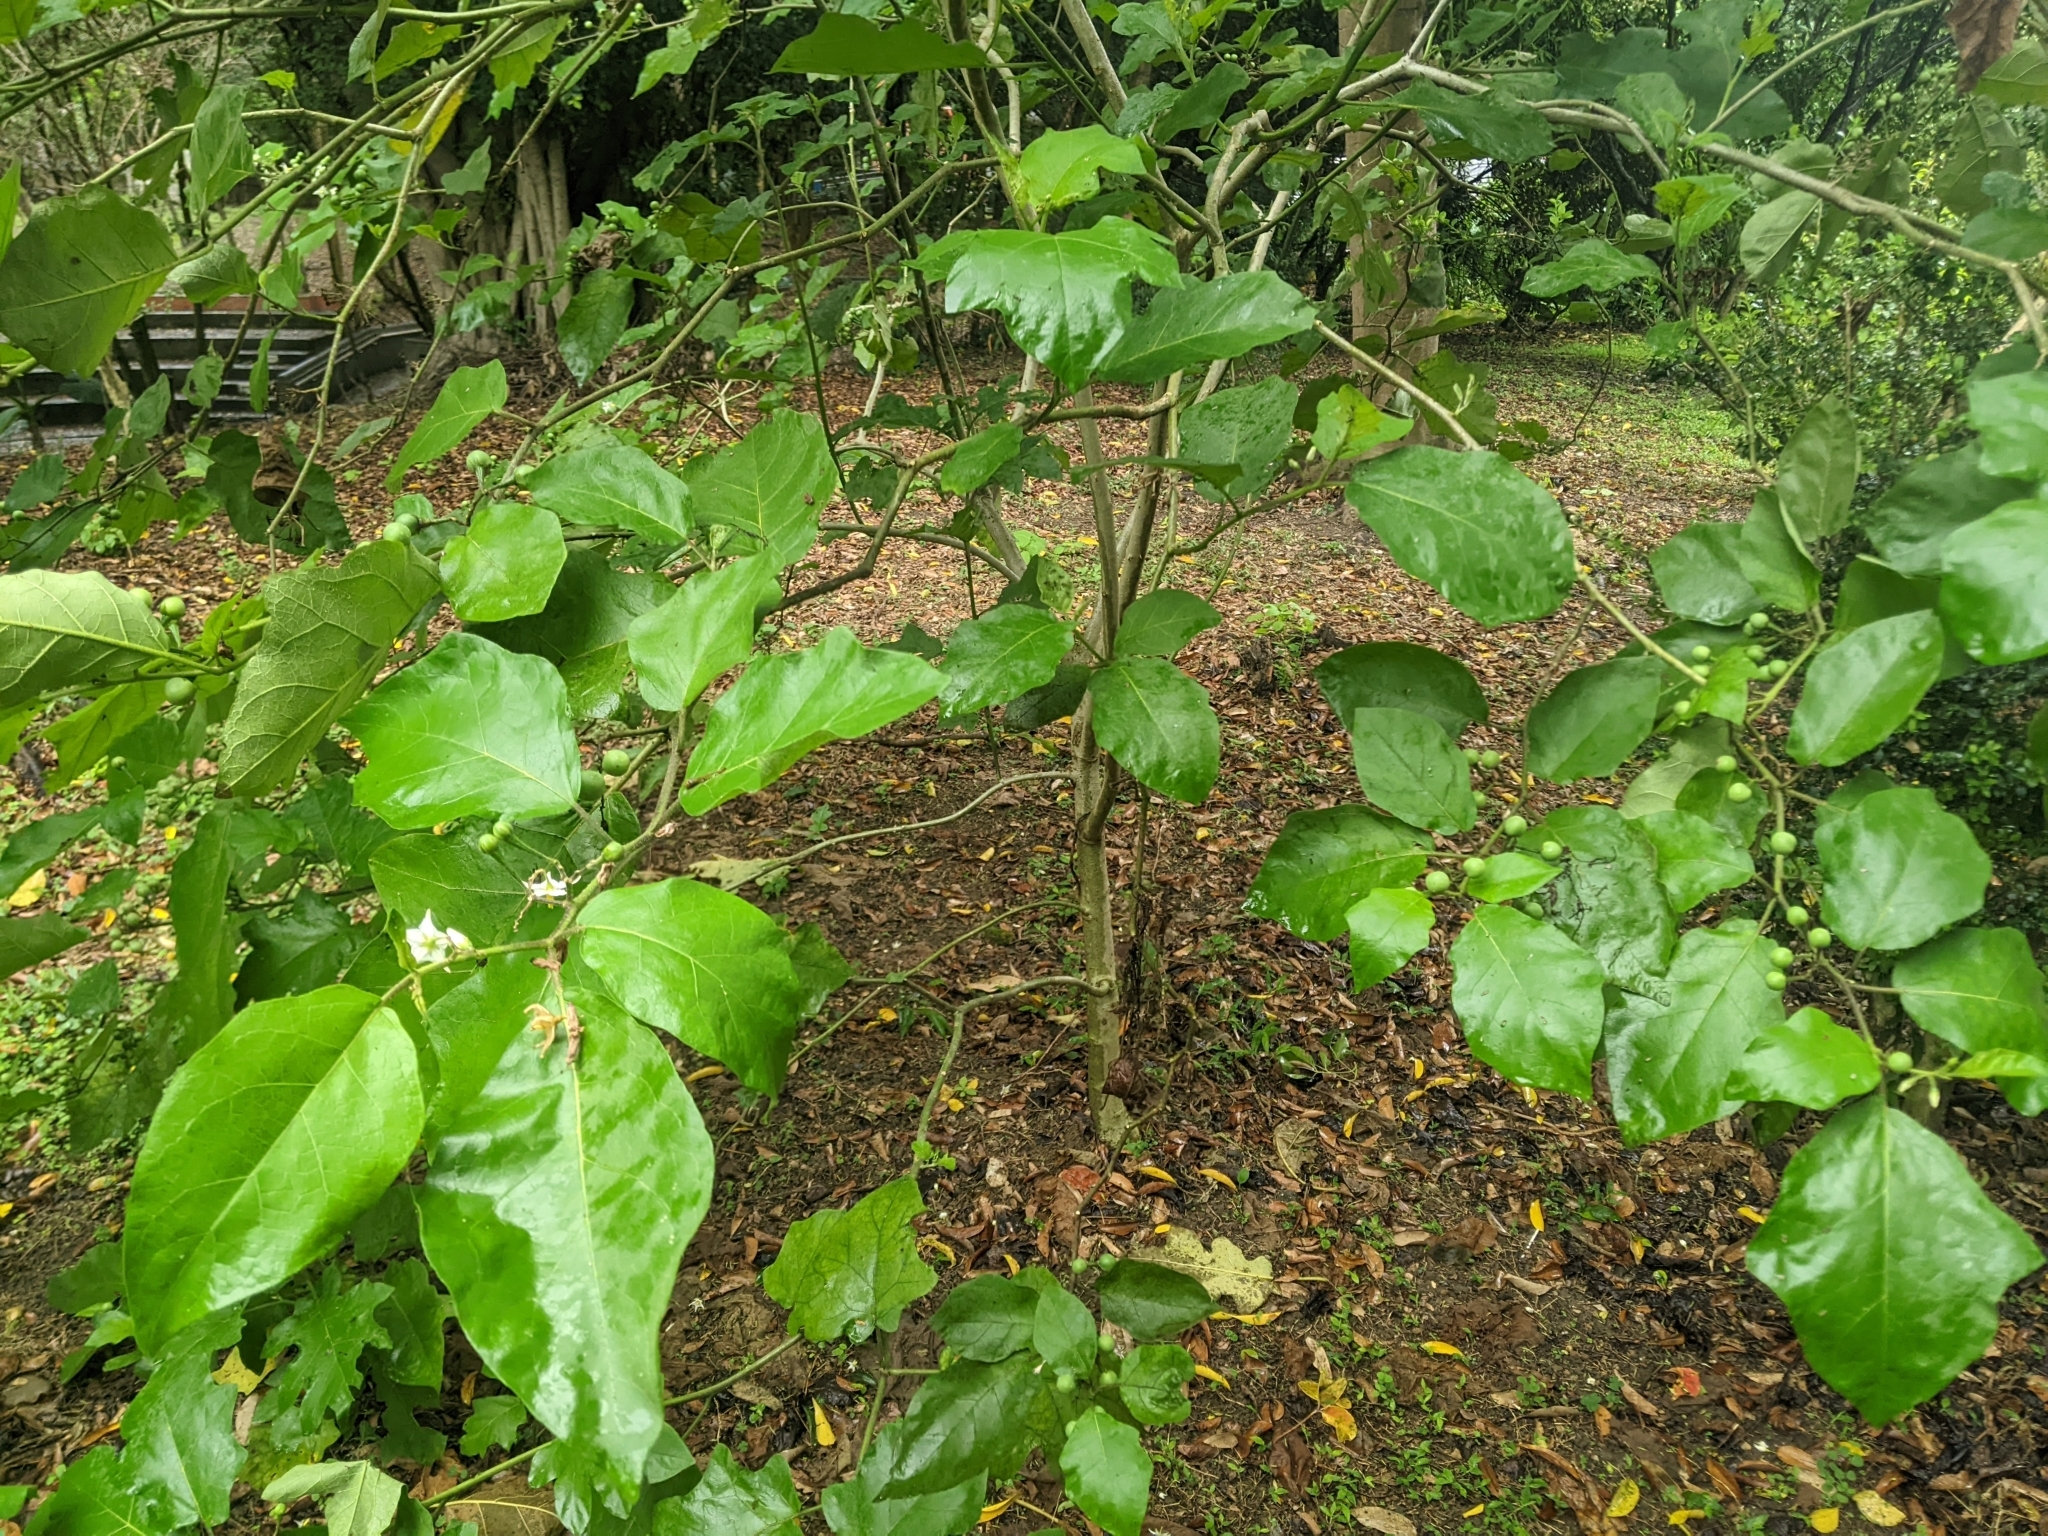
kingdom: Plantae
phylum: Tracheophyta
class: Magnoliopsida
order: Solanales
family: Solanaceae
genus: Solanum
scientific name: Solanum torvum
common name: Turkey berry
